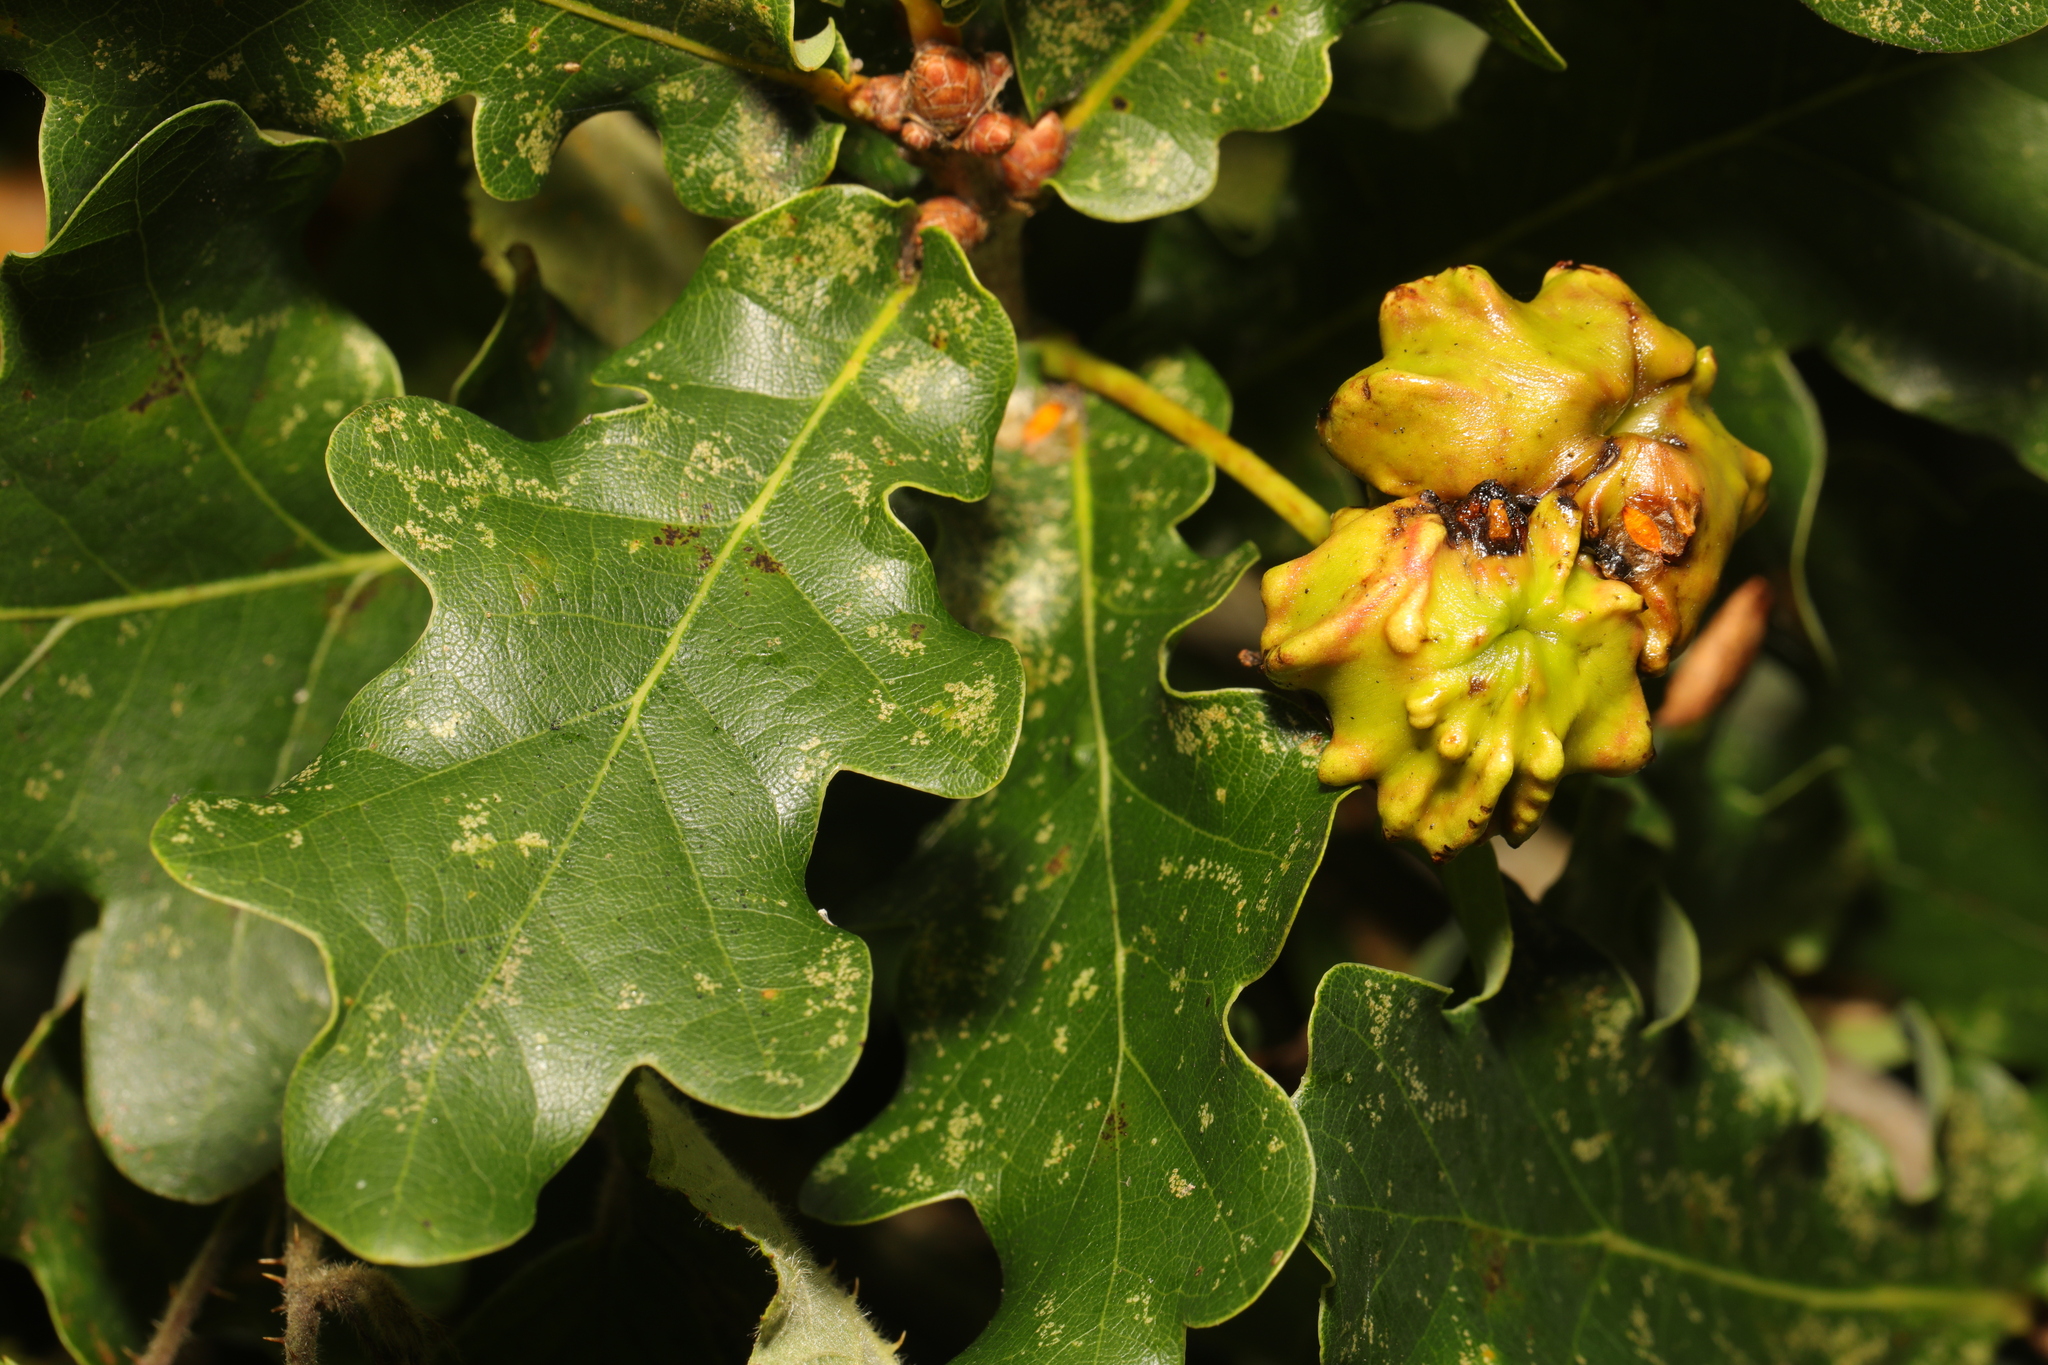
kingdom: Animalia
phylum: Arthropoda
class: Insecta
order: Hymenoptera
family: Cynipidae
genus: Andricus
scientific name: Andricus quercuscalicis
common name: Knopper gall
